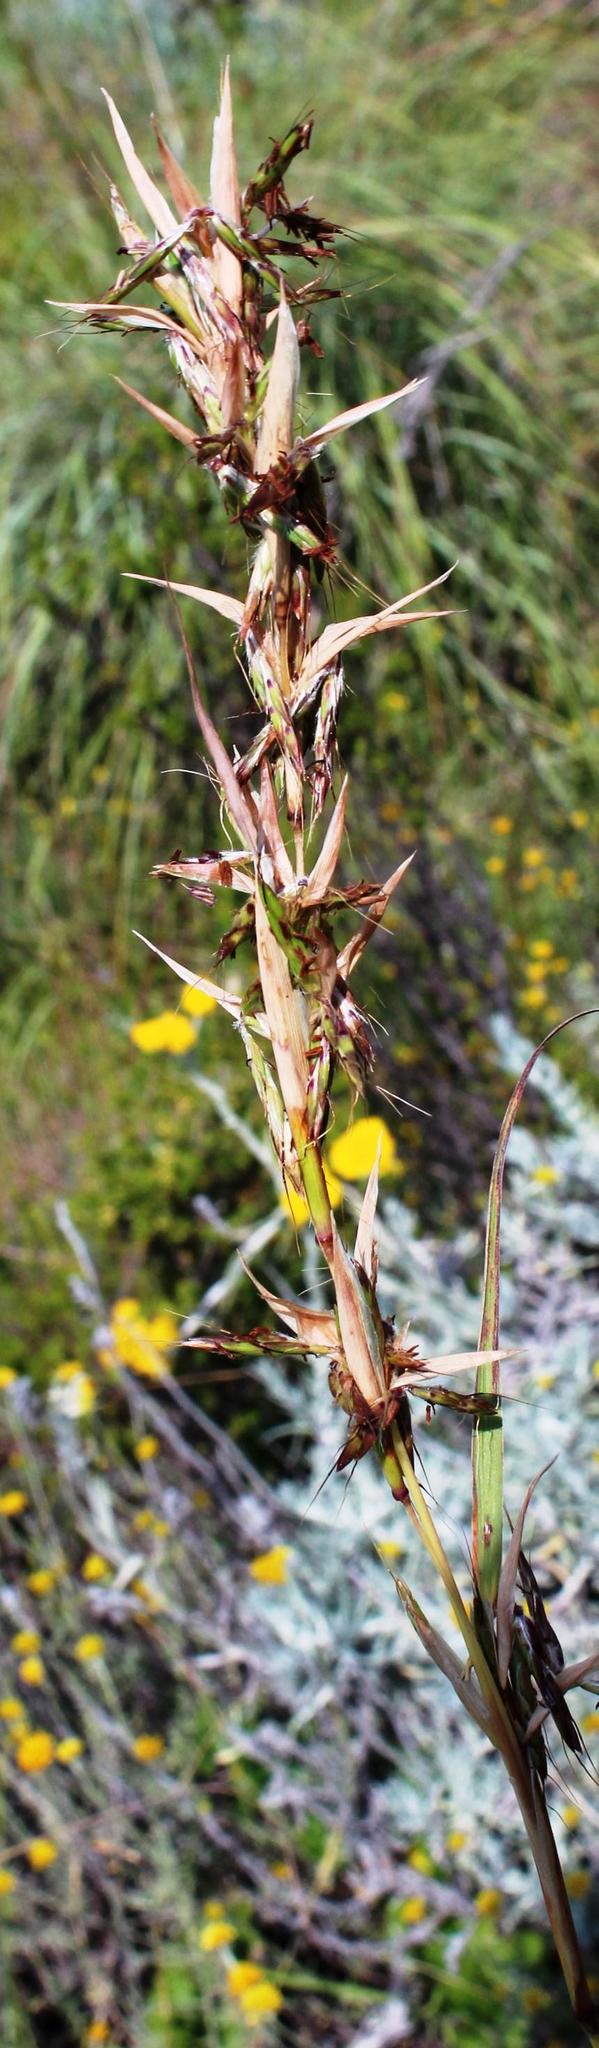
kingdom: Plantae
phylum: Tracheophyta
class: Liliopsida
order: Poales
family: Poaceae
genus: Cymbopogon
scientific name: Cymbopogon pospischilii
